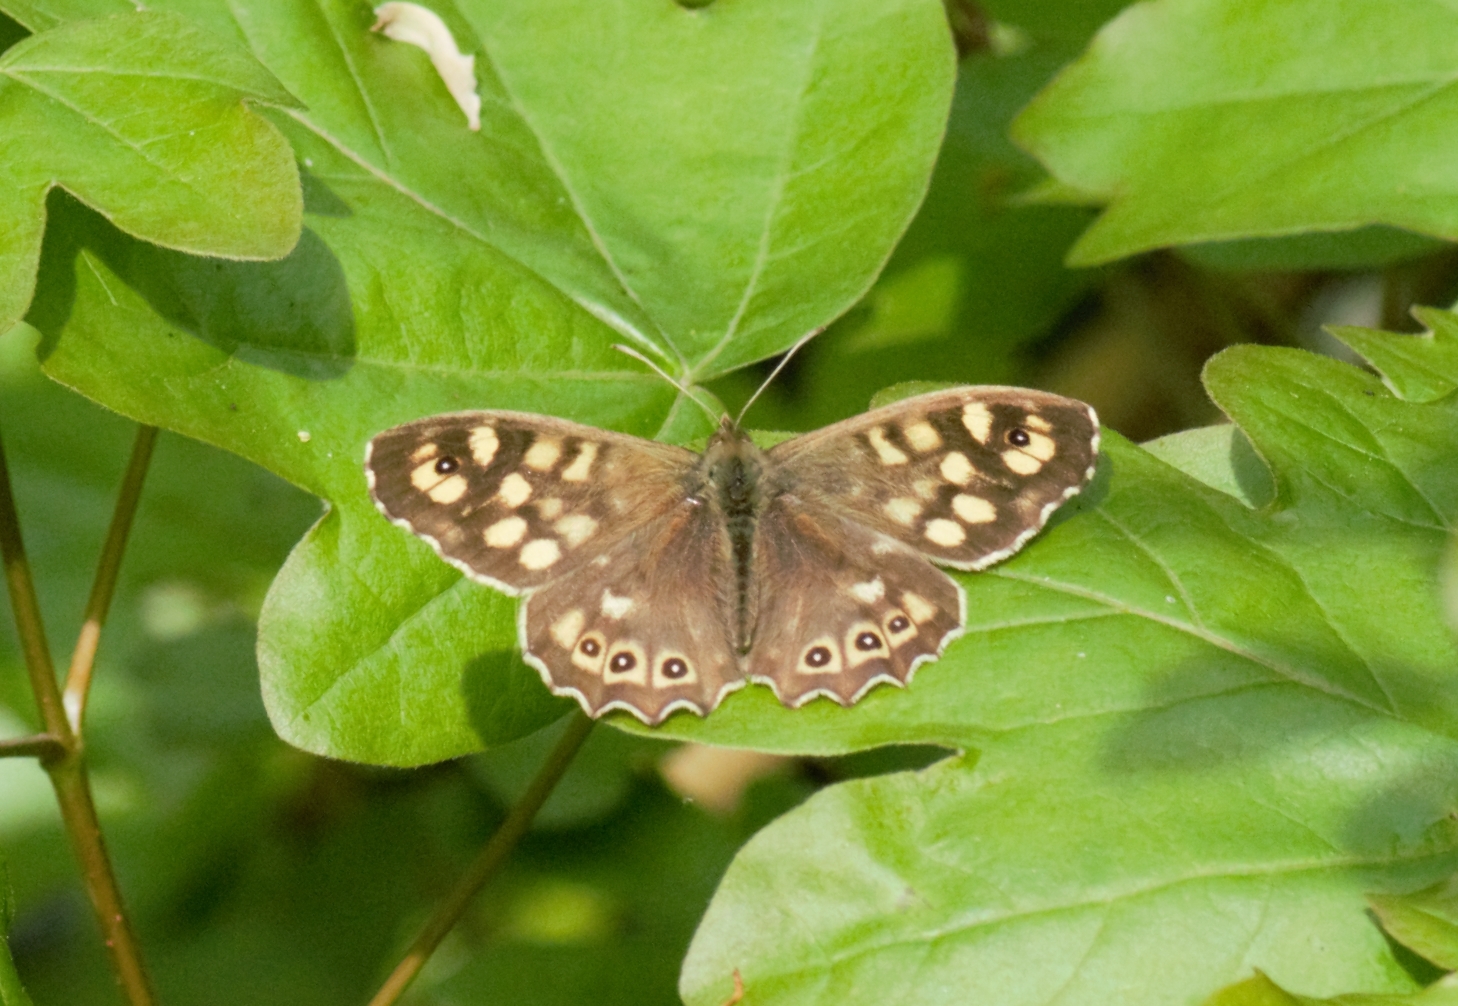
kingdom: Animalia
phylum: Arthropoda
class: Insecta
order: Lepidoptera
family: Nymphalidae
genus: Pararge
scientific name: Pararge aegeria
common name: Speckled wood
